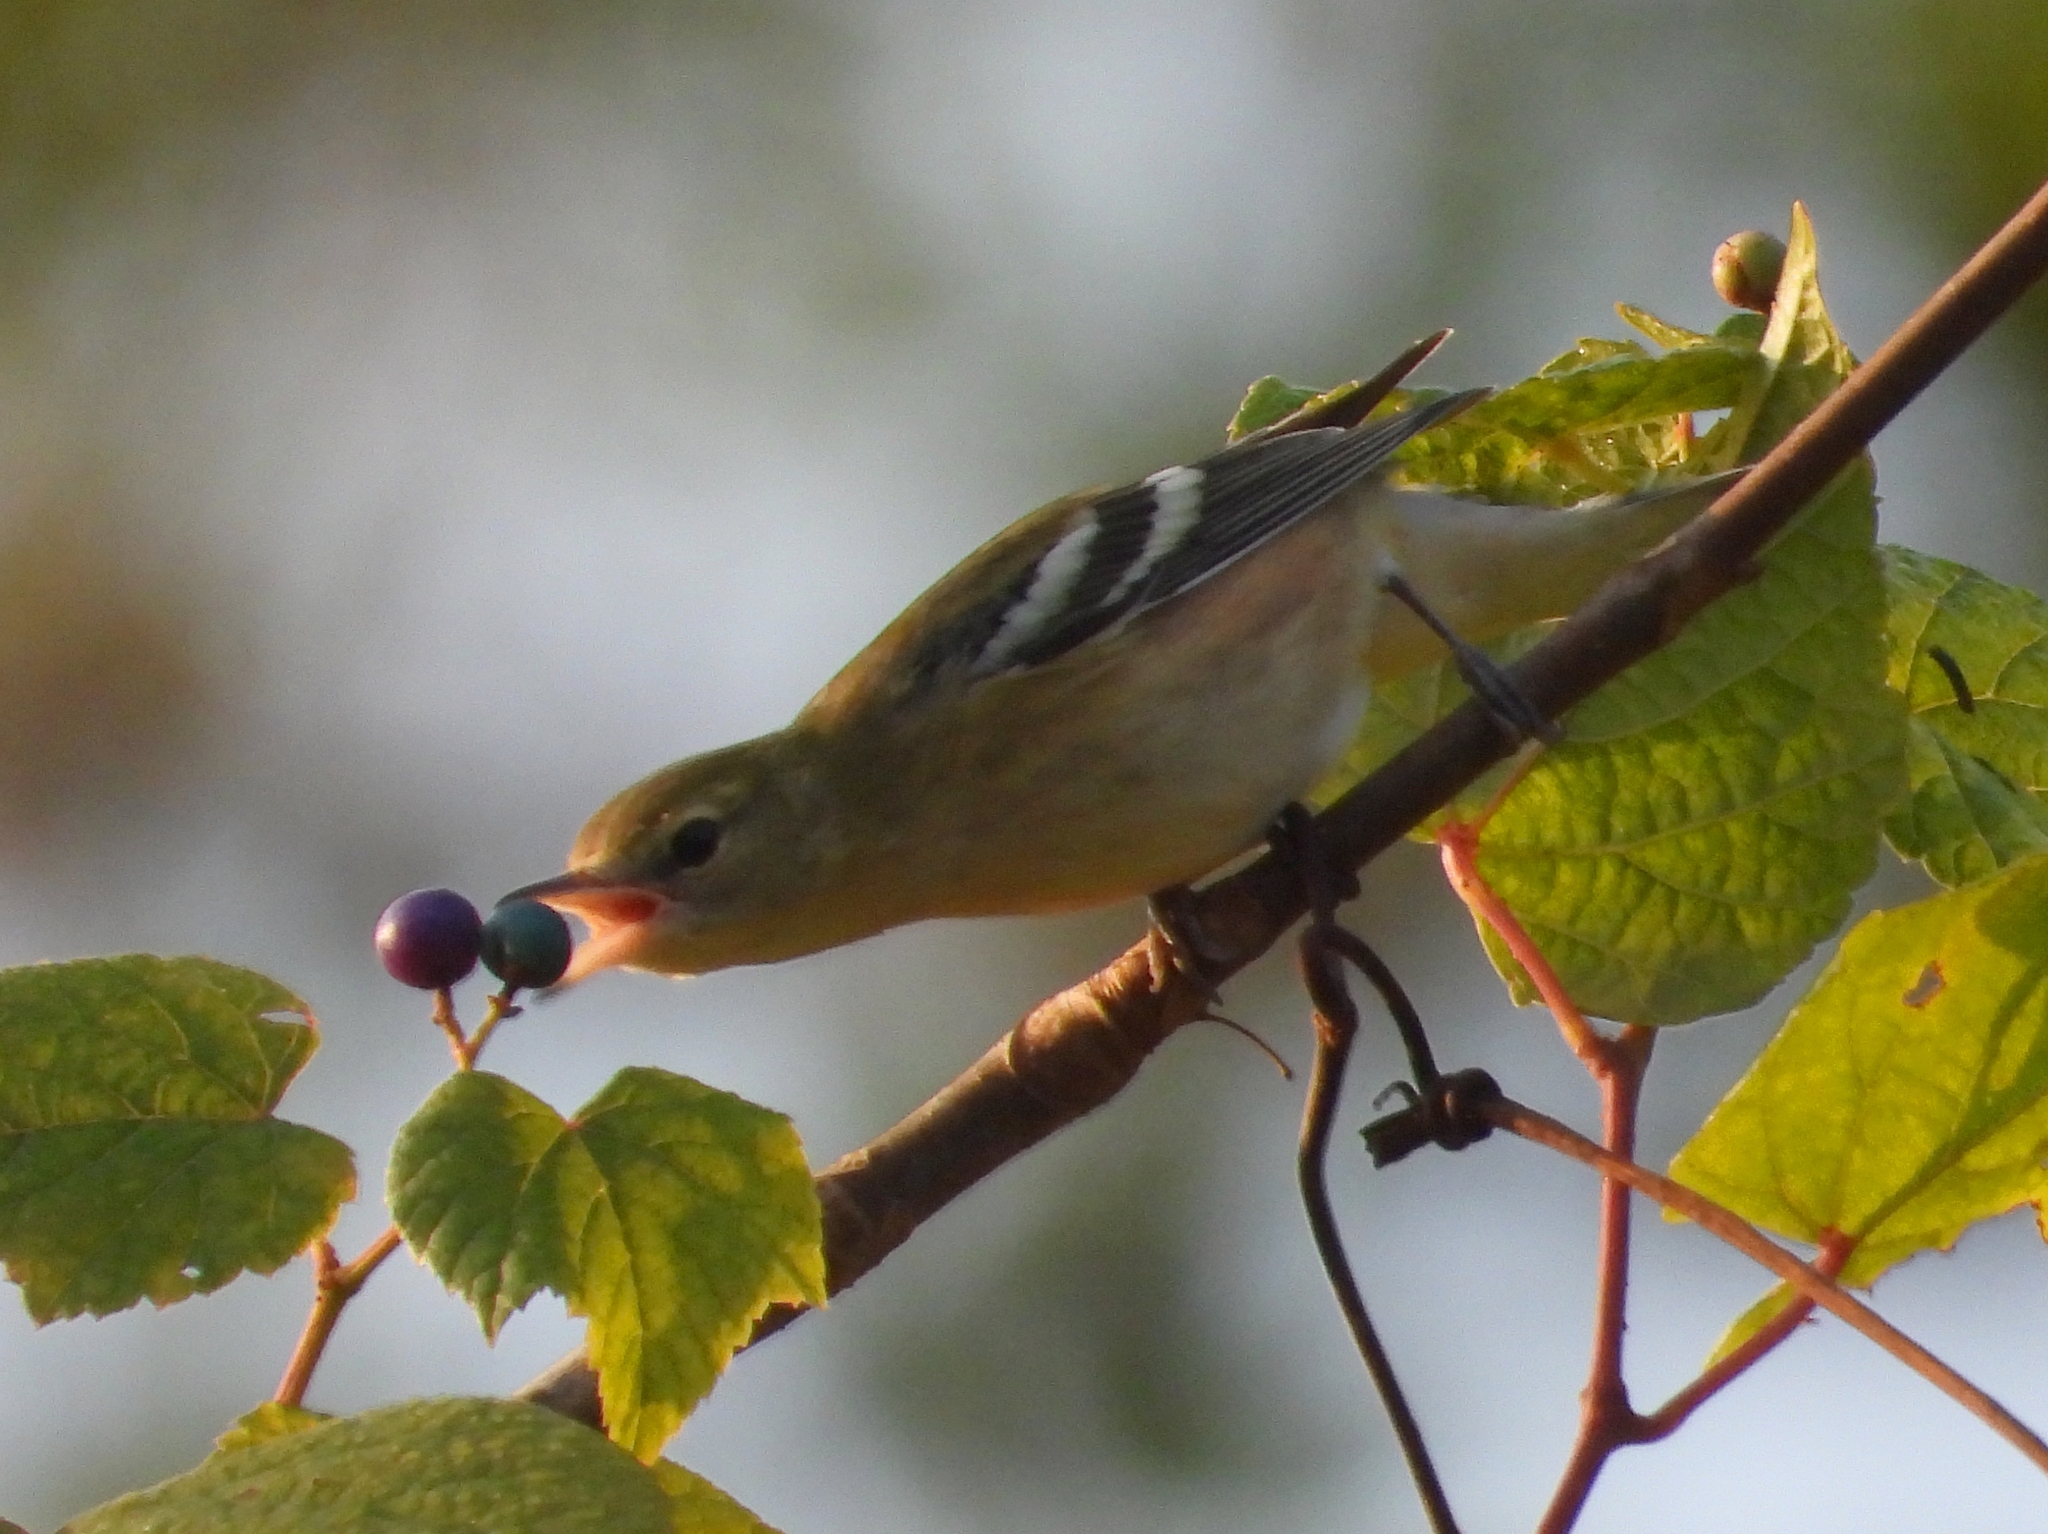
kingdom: Animalia
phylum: Chordata
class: Aves
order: Passeriformes
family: Parulidae
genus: Setophaga
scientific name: Setophaga castanea
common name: Bay-breasted warbler
